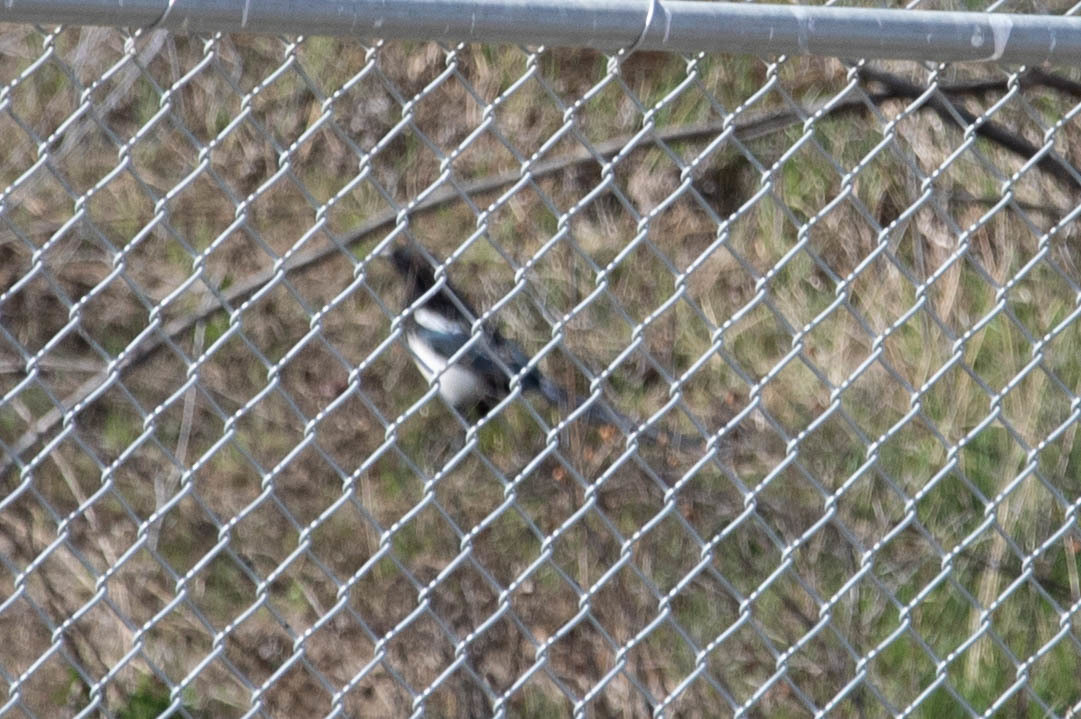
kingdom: Animalia
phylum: Chordata
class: Aves
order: Passeriformes
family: Corvidae
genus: Pica
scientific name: Pica hudsonia
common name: Black-billed magpie
